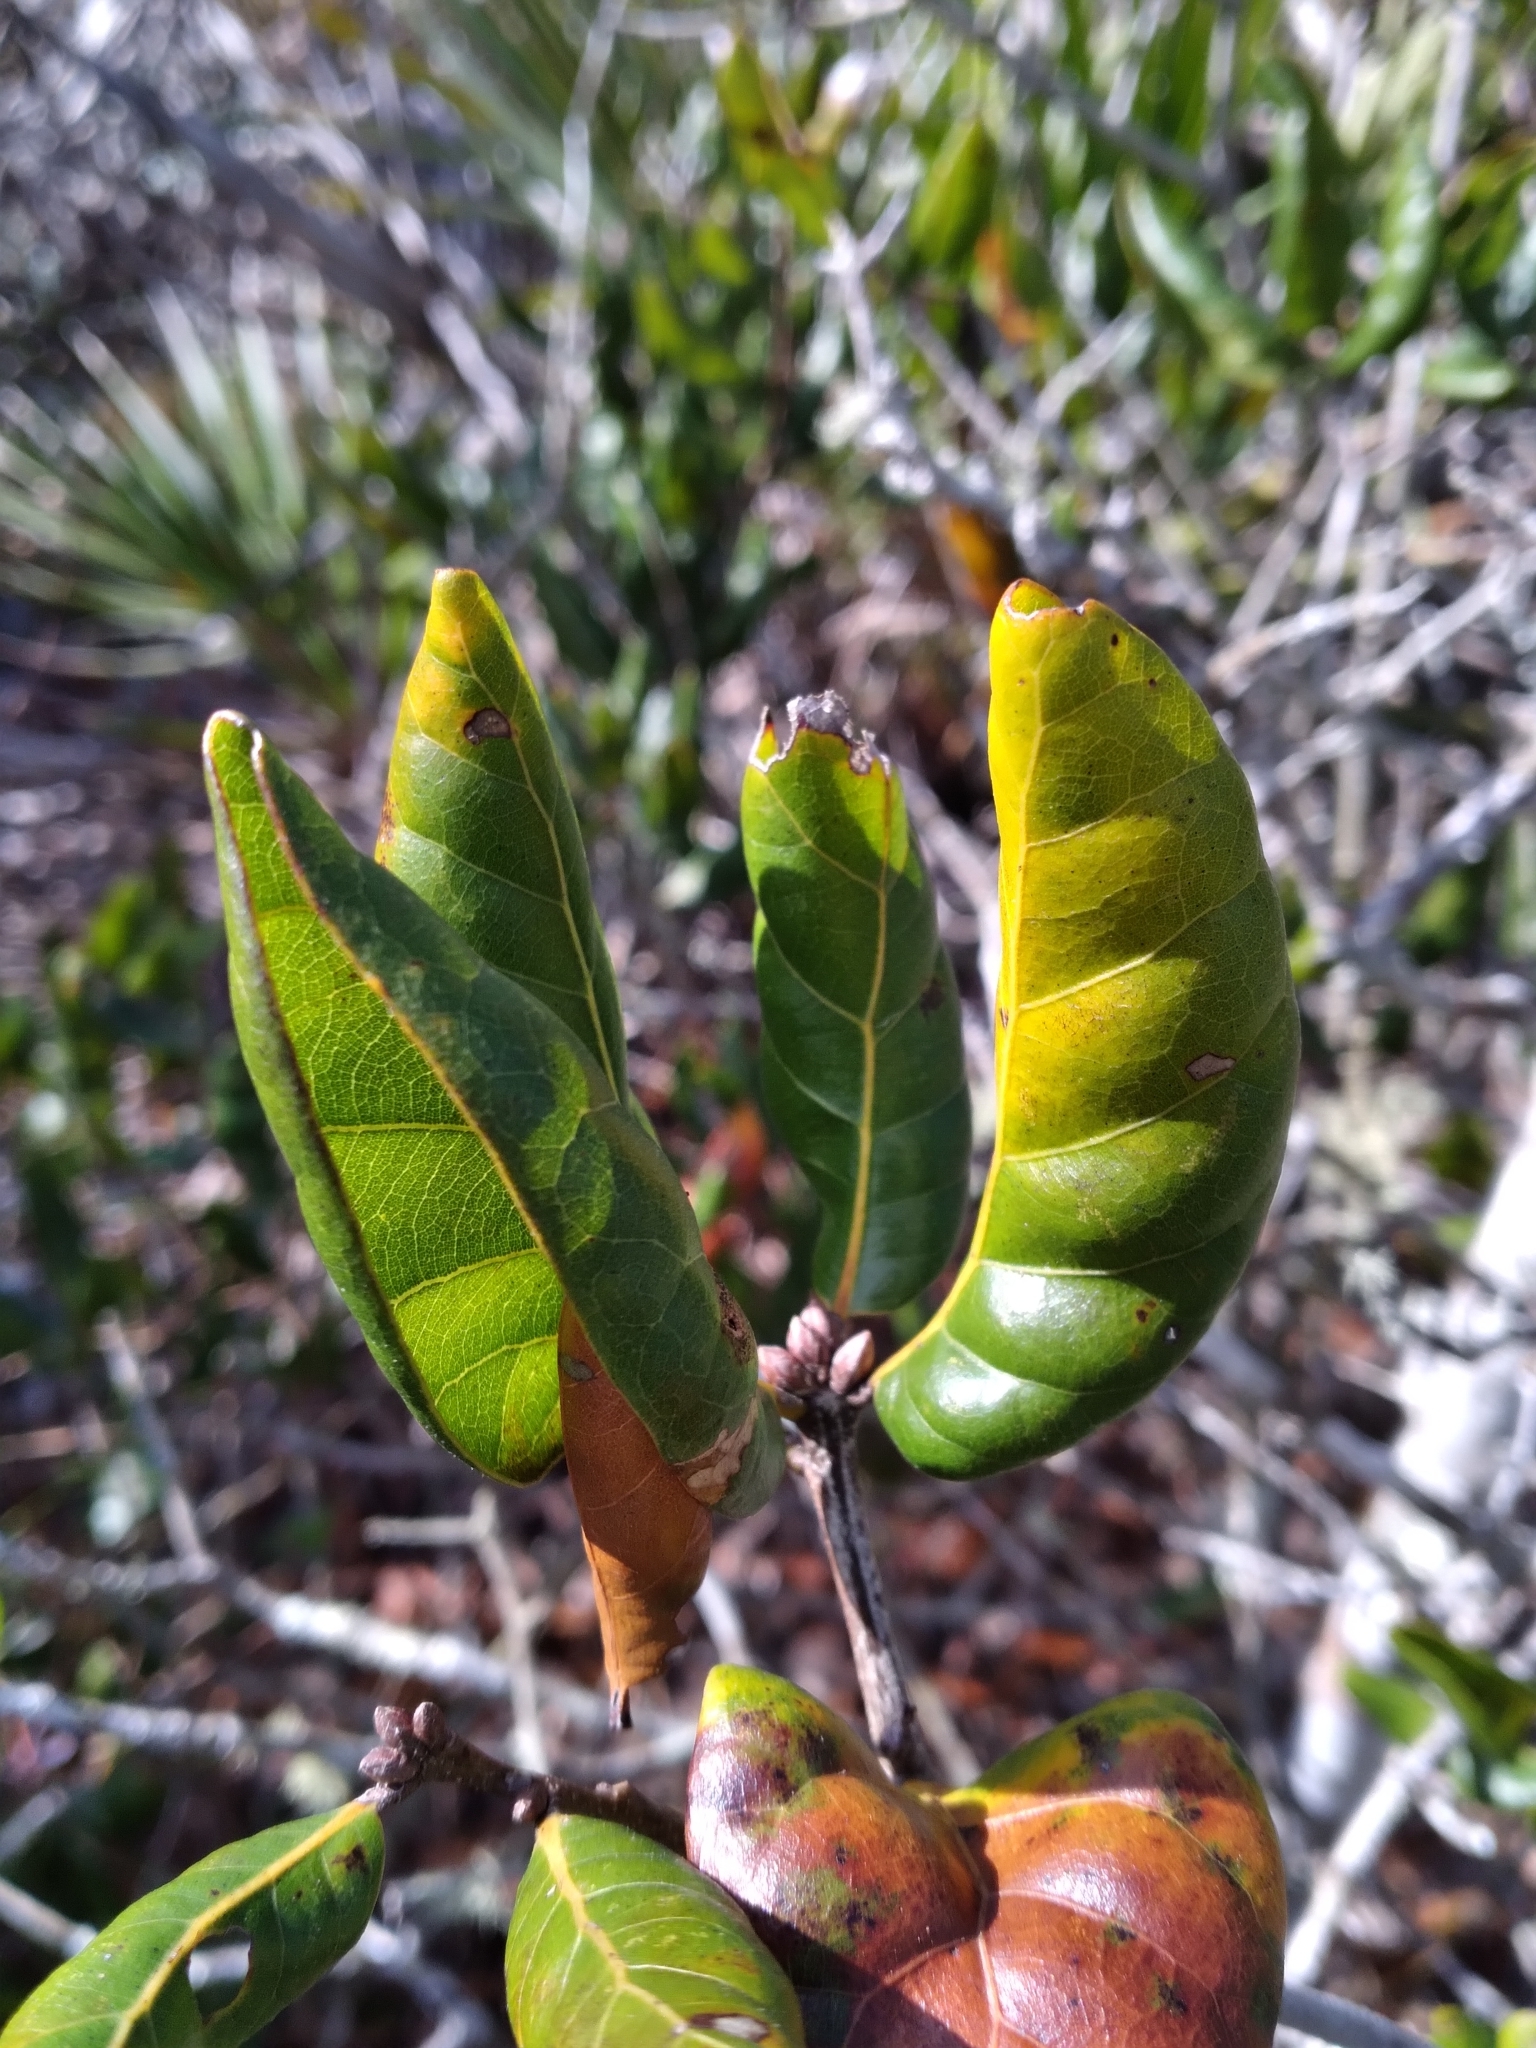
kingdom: Plantae
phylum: Tracheophyta
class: Magnoliopsida
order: Fagales
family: Fagaceae
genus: Quercus
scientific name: Quercus inopina
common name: Sandhill oak
